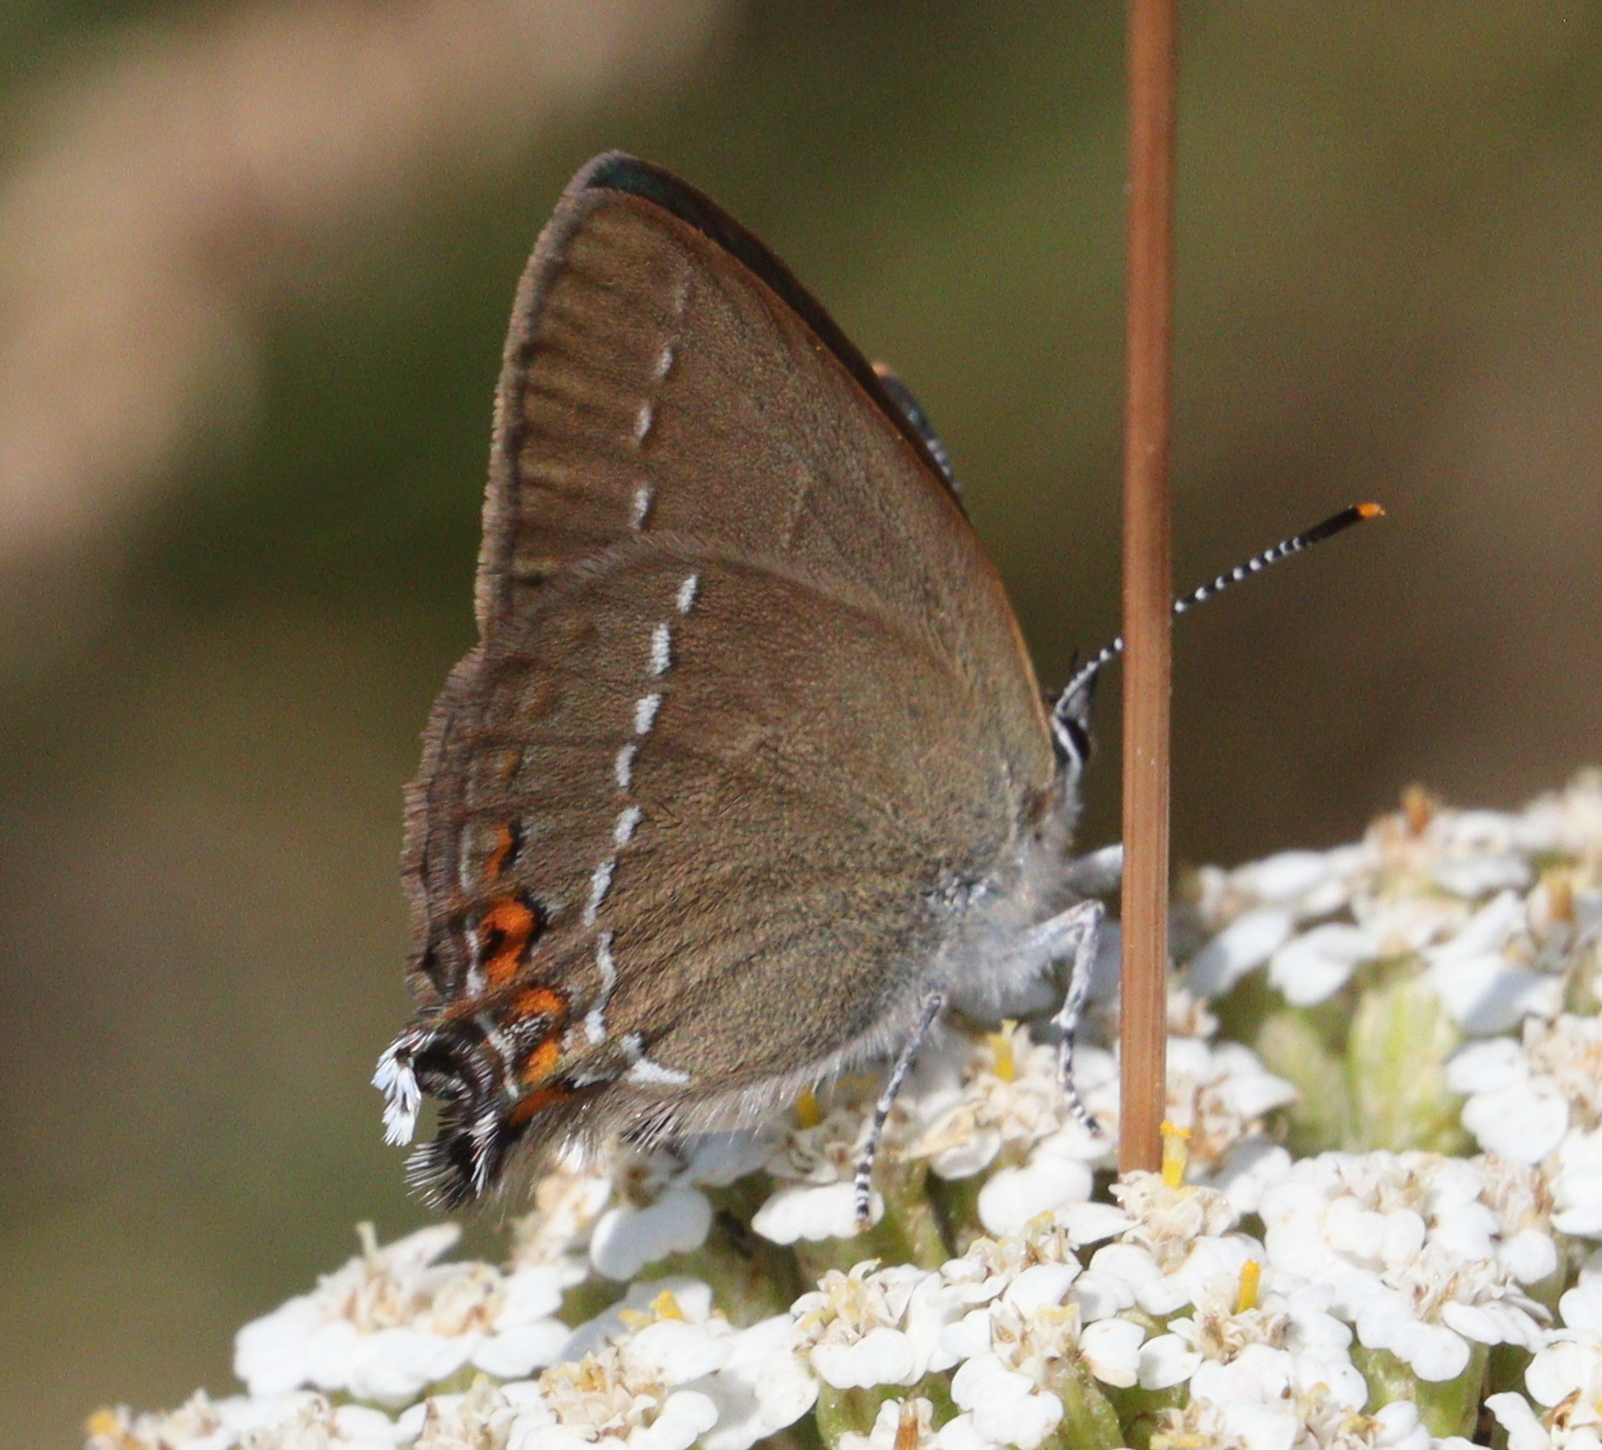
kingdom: Animalia
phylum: Arthropoda
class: Insecta
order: Lepidoptera
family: Lycaenidae
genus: Strymon
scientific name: Strymon acaciae
